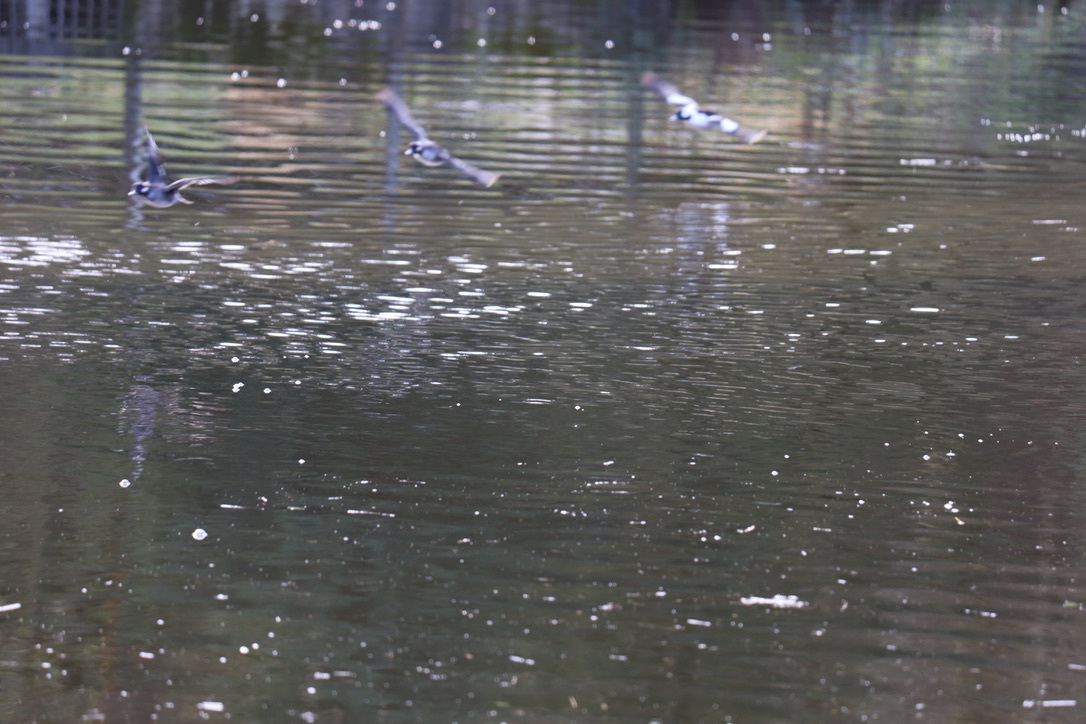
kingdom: Animalia
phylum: Chordata
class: Aves
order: Anseriformes
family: Anatidae
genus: Bucephala
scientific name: Bucephala albeola
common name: Bufflehead
